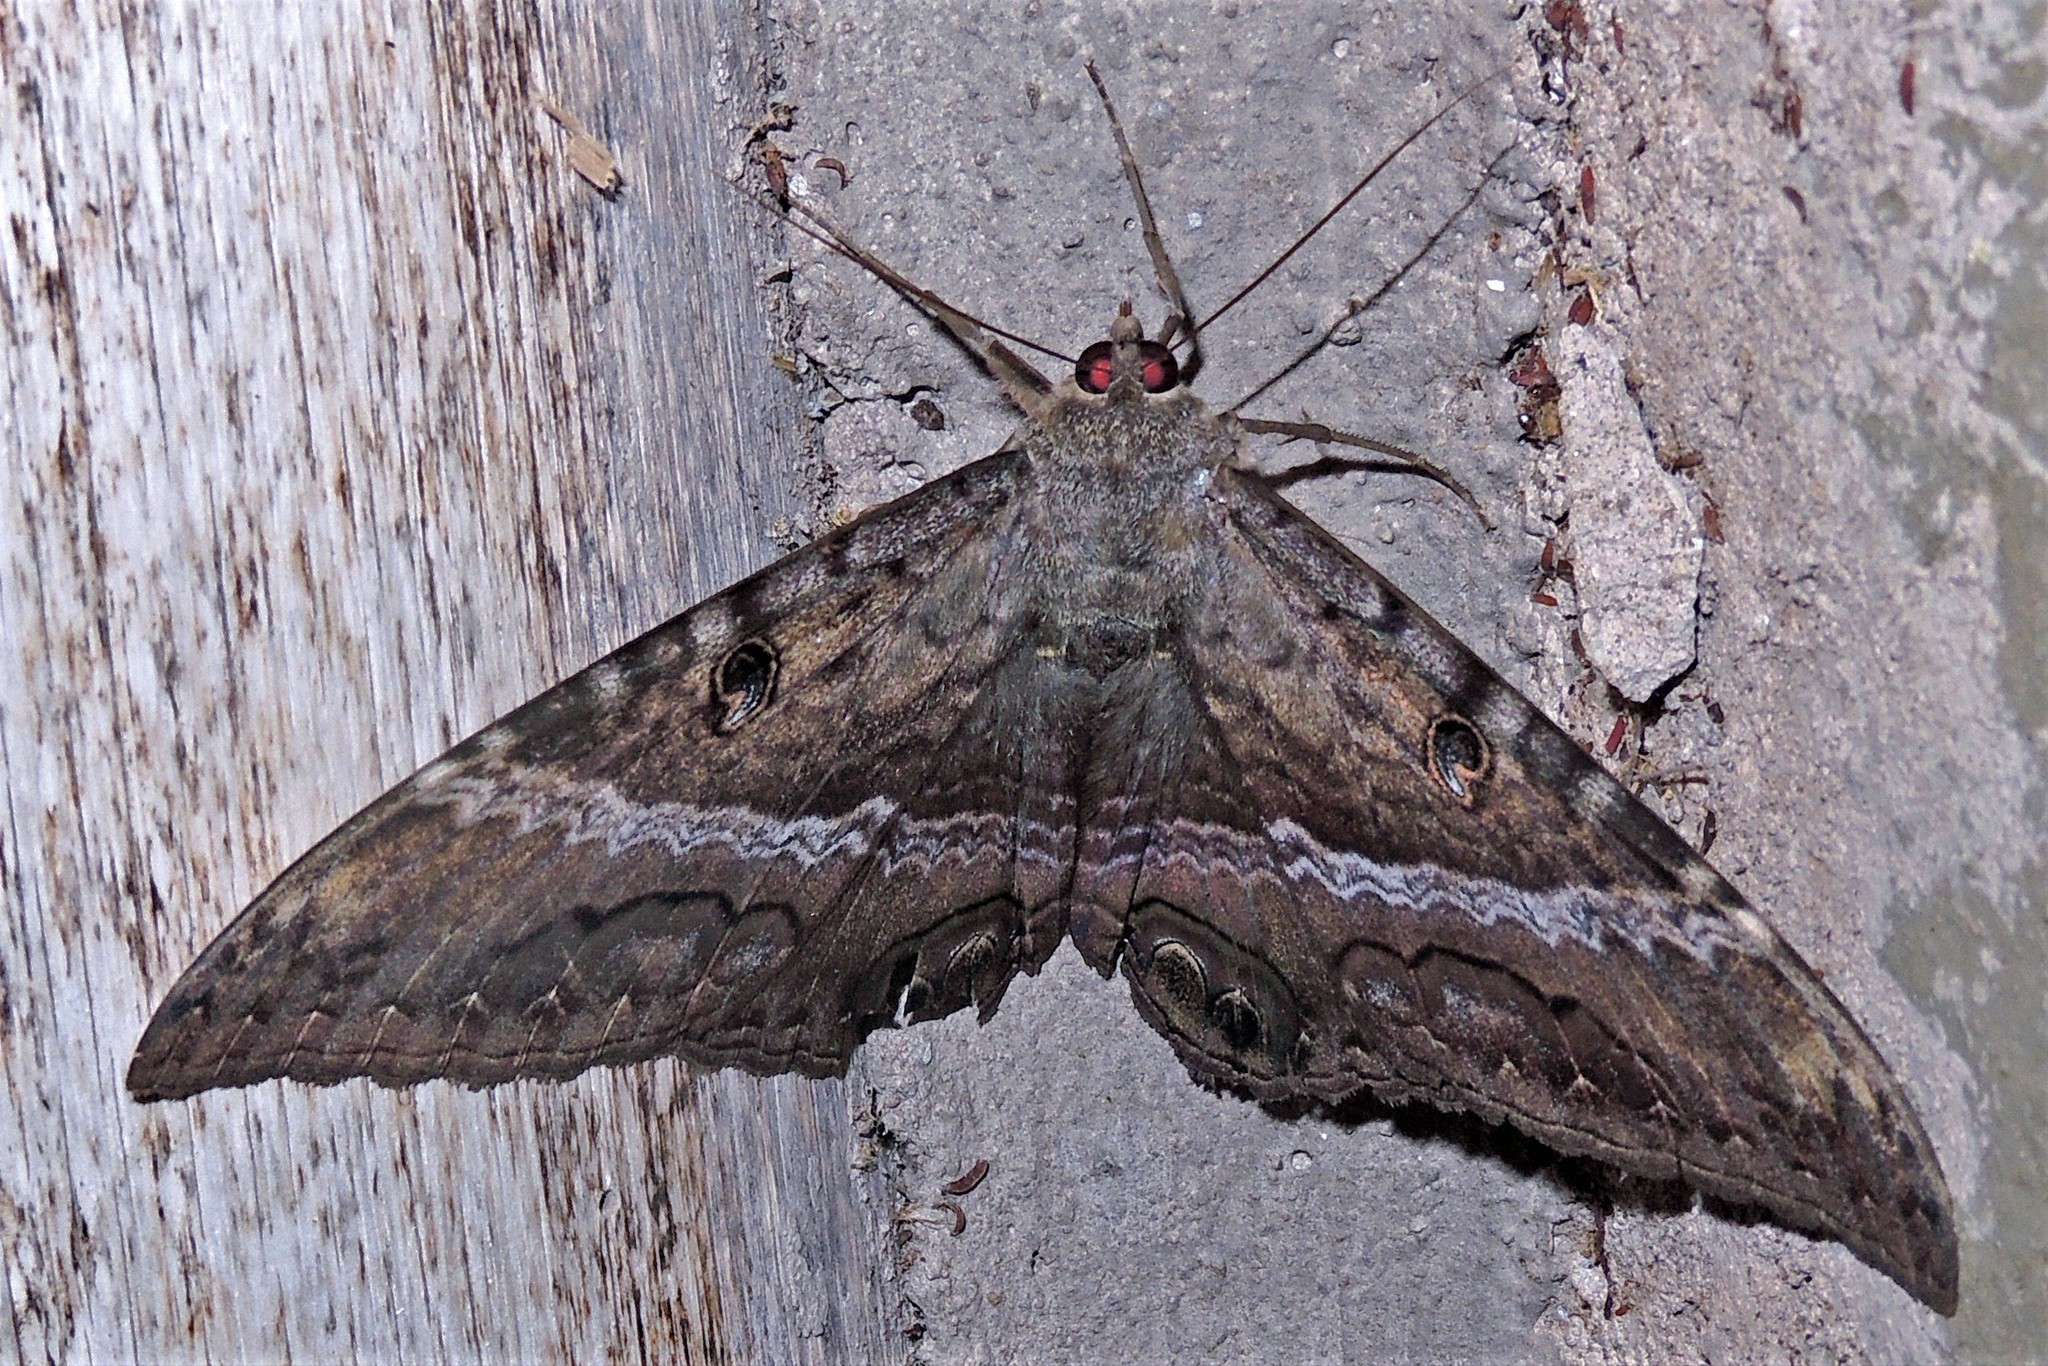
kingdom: Animalia
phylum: Arthropoda
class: Insecta
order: Lepidoptera
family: Erebidae
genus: Ascalapha
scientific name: Ascalapha odorata
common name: Black witch
